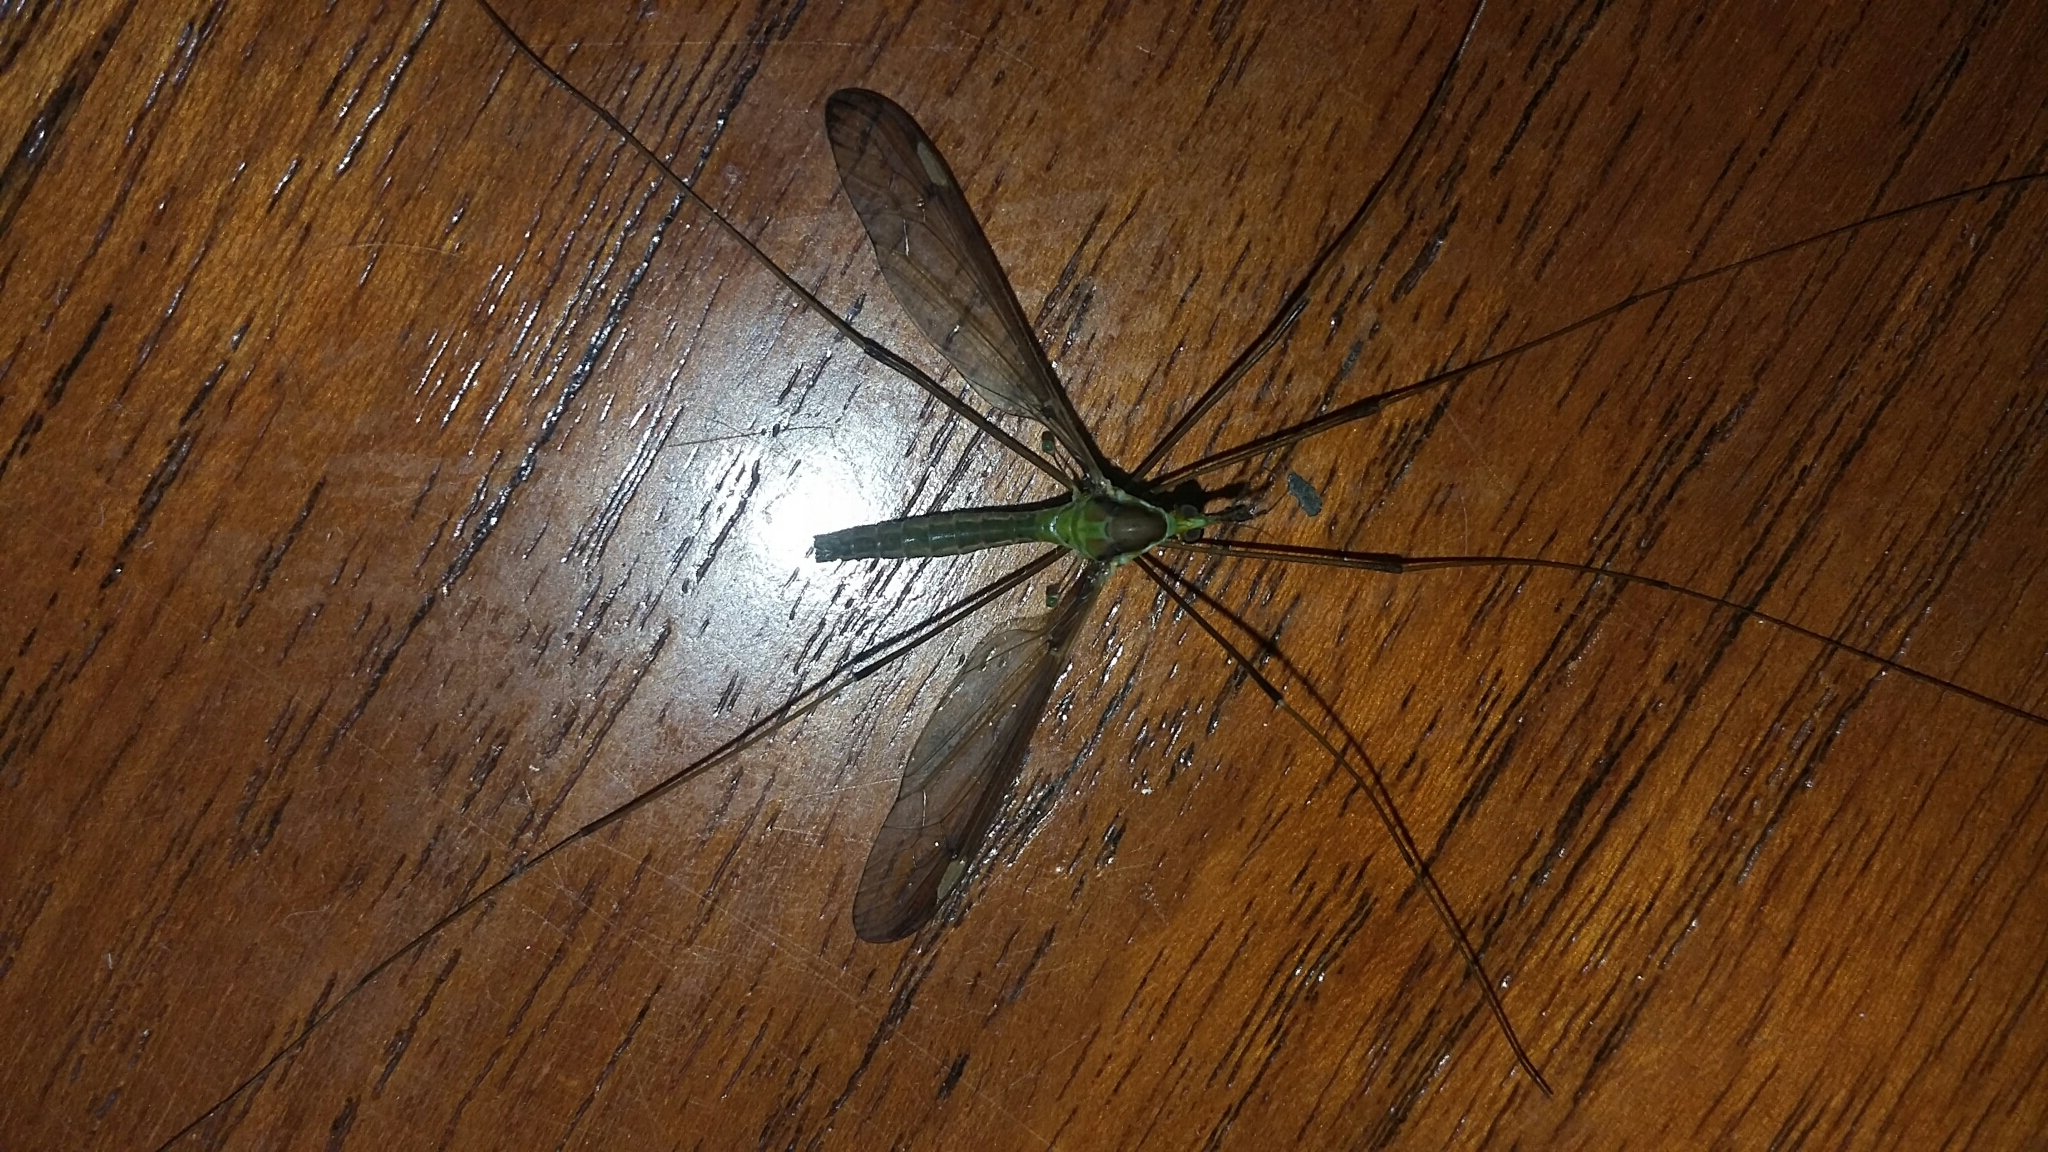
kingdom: Animalia
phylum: Arthropoda
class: Insecta
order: Diptera
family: Tipulidae
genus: Leptotarsus
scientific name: Leptotarsus albistigma
